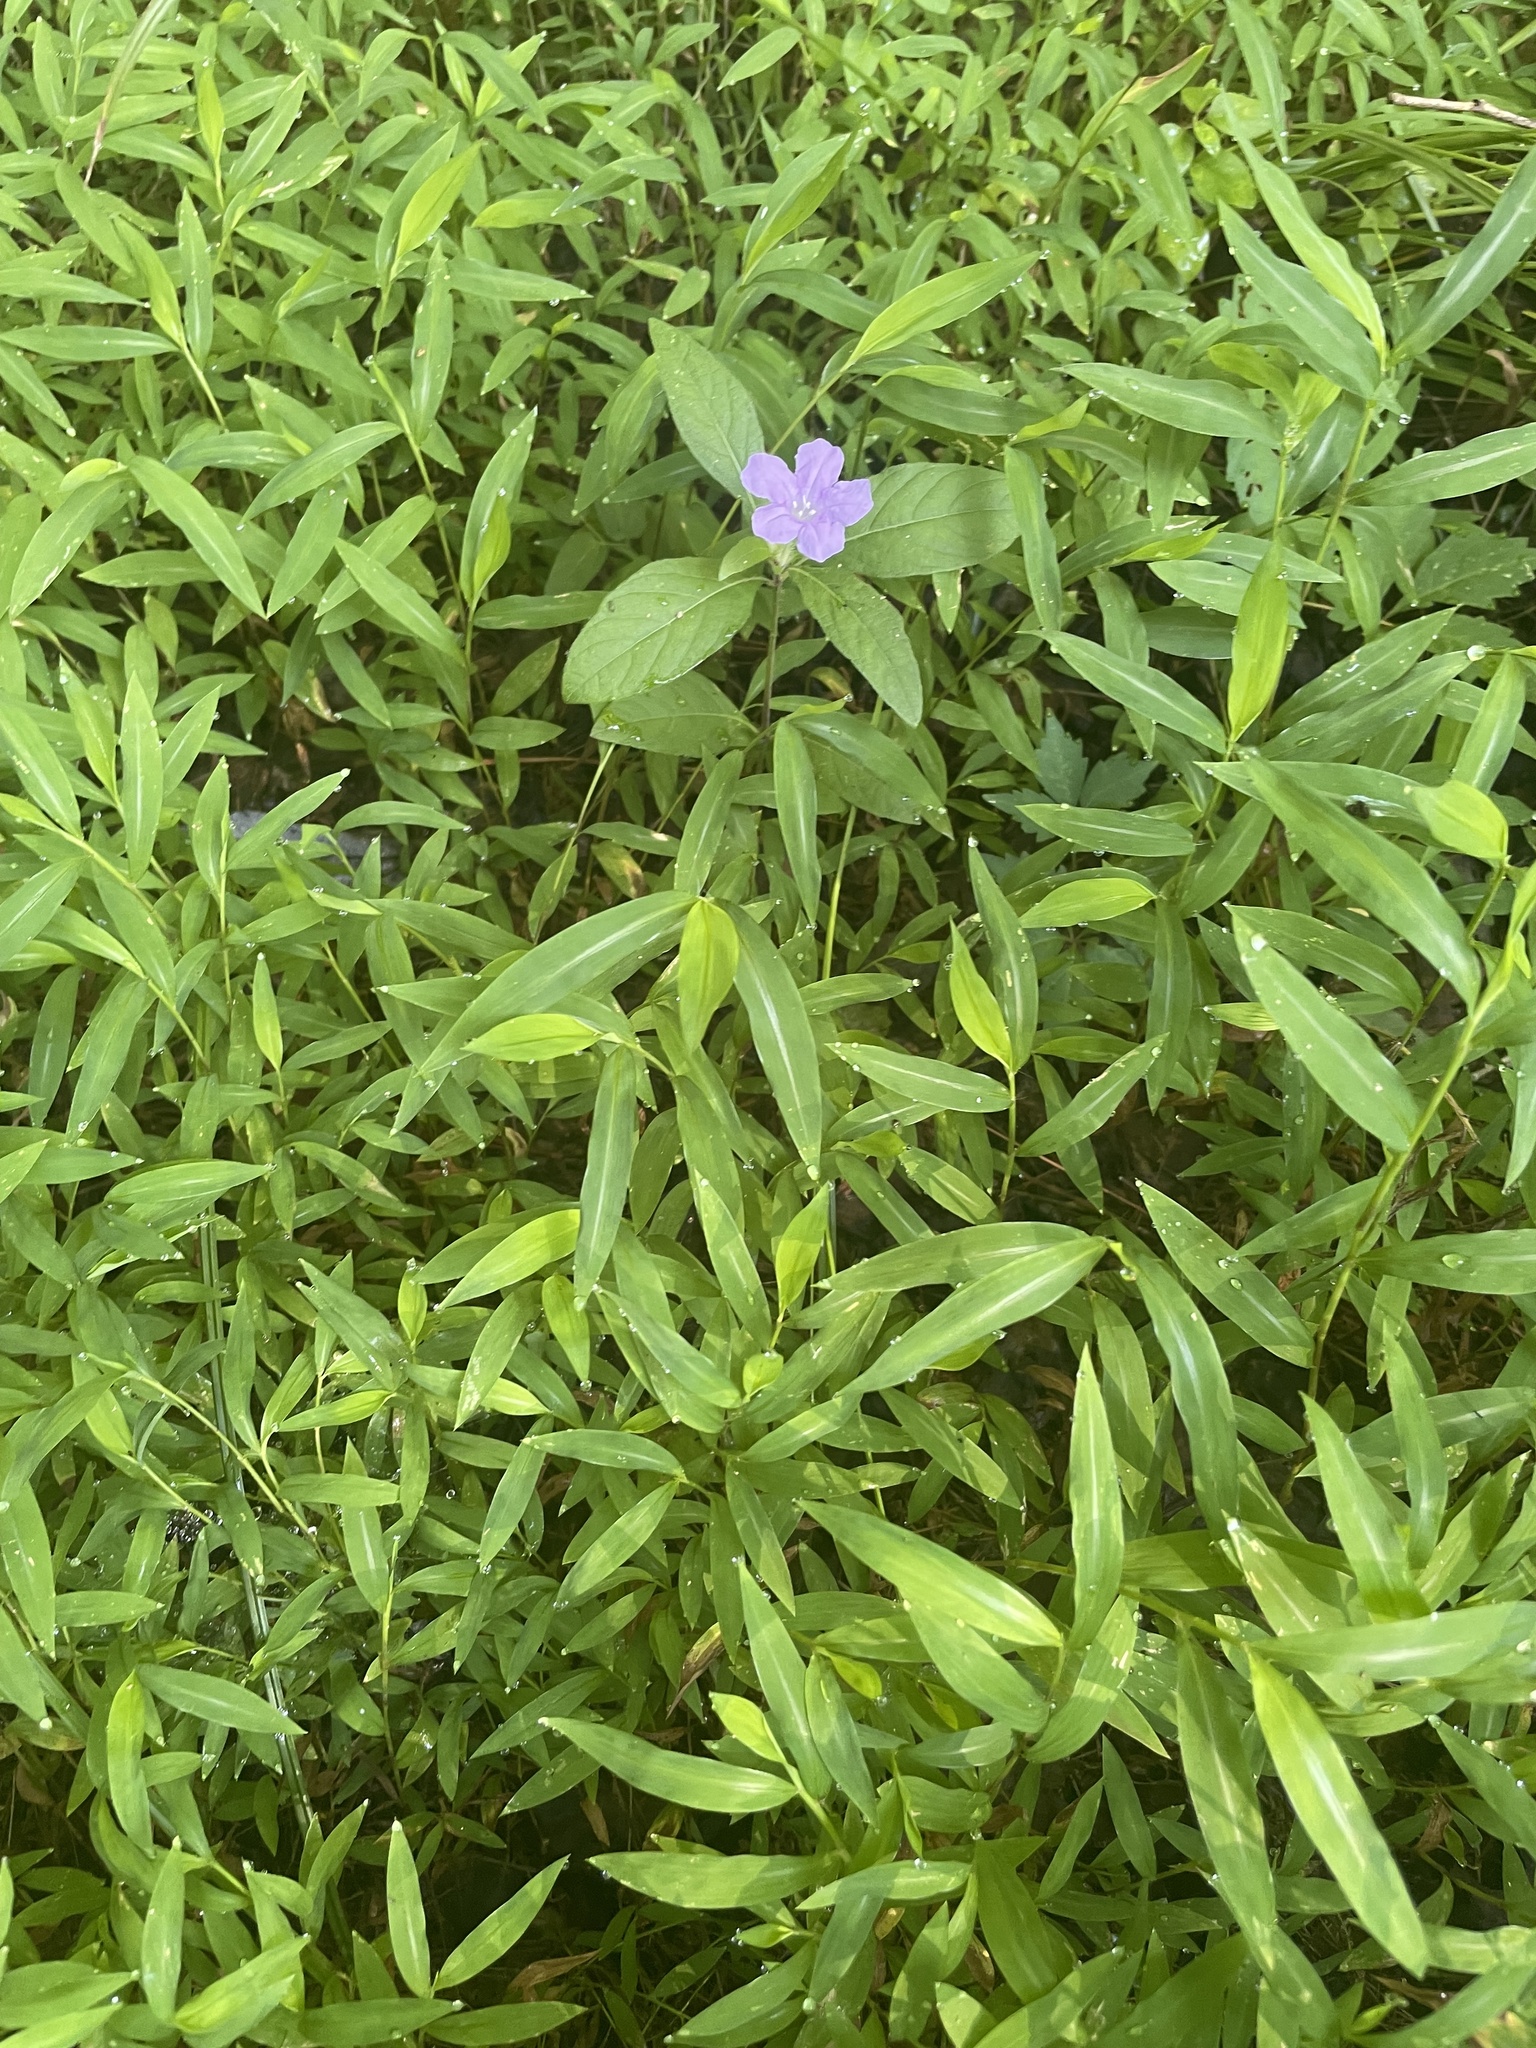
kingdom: Plantae
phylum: Tracheophyta
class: Liliopsida
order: Poales
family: Poaceae
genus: Microstegium
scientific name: Microstegium vimineum
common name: Japanese stiltgrass
